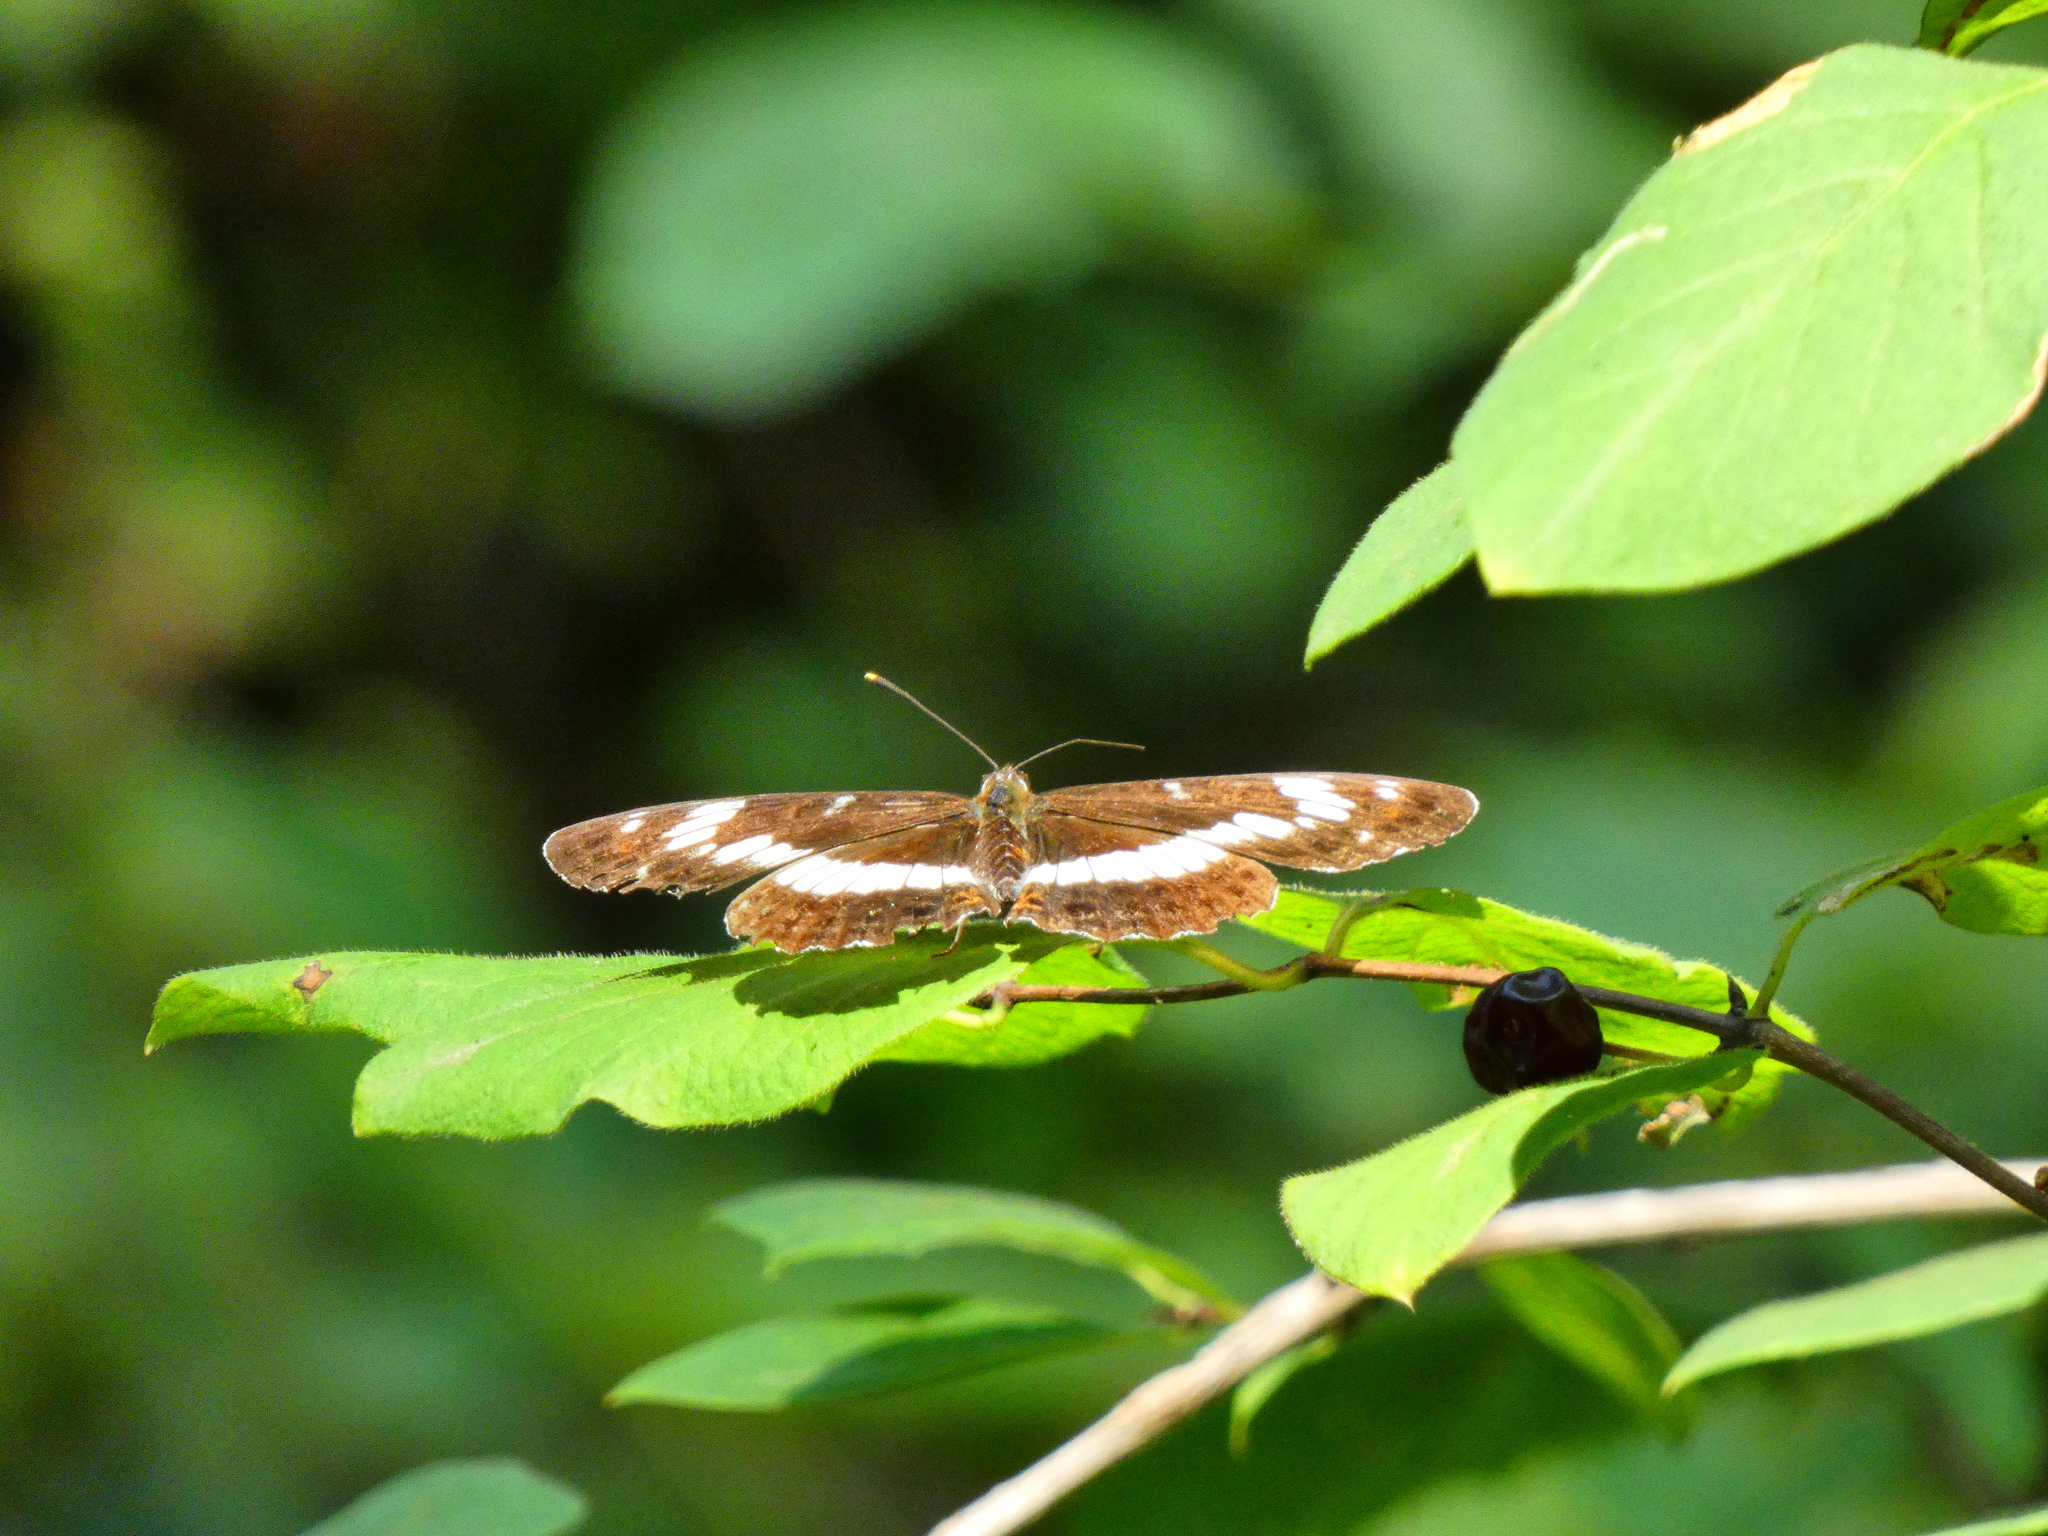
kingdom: Animalia
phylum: Arthropoda
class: Insecta
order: Lepidoptera
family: Nymphalidae
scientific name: Nymphalidae
